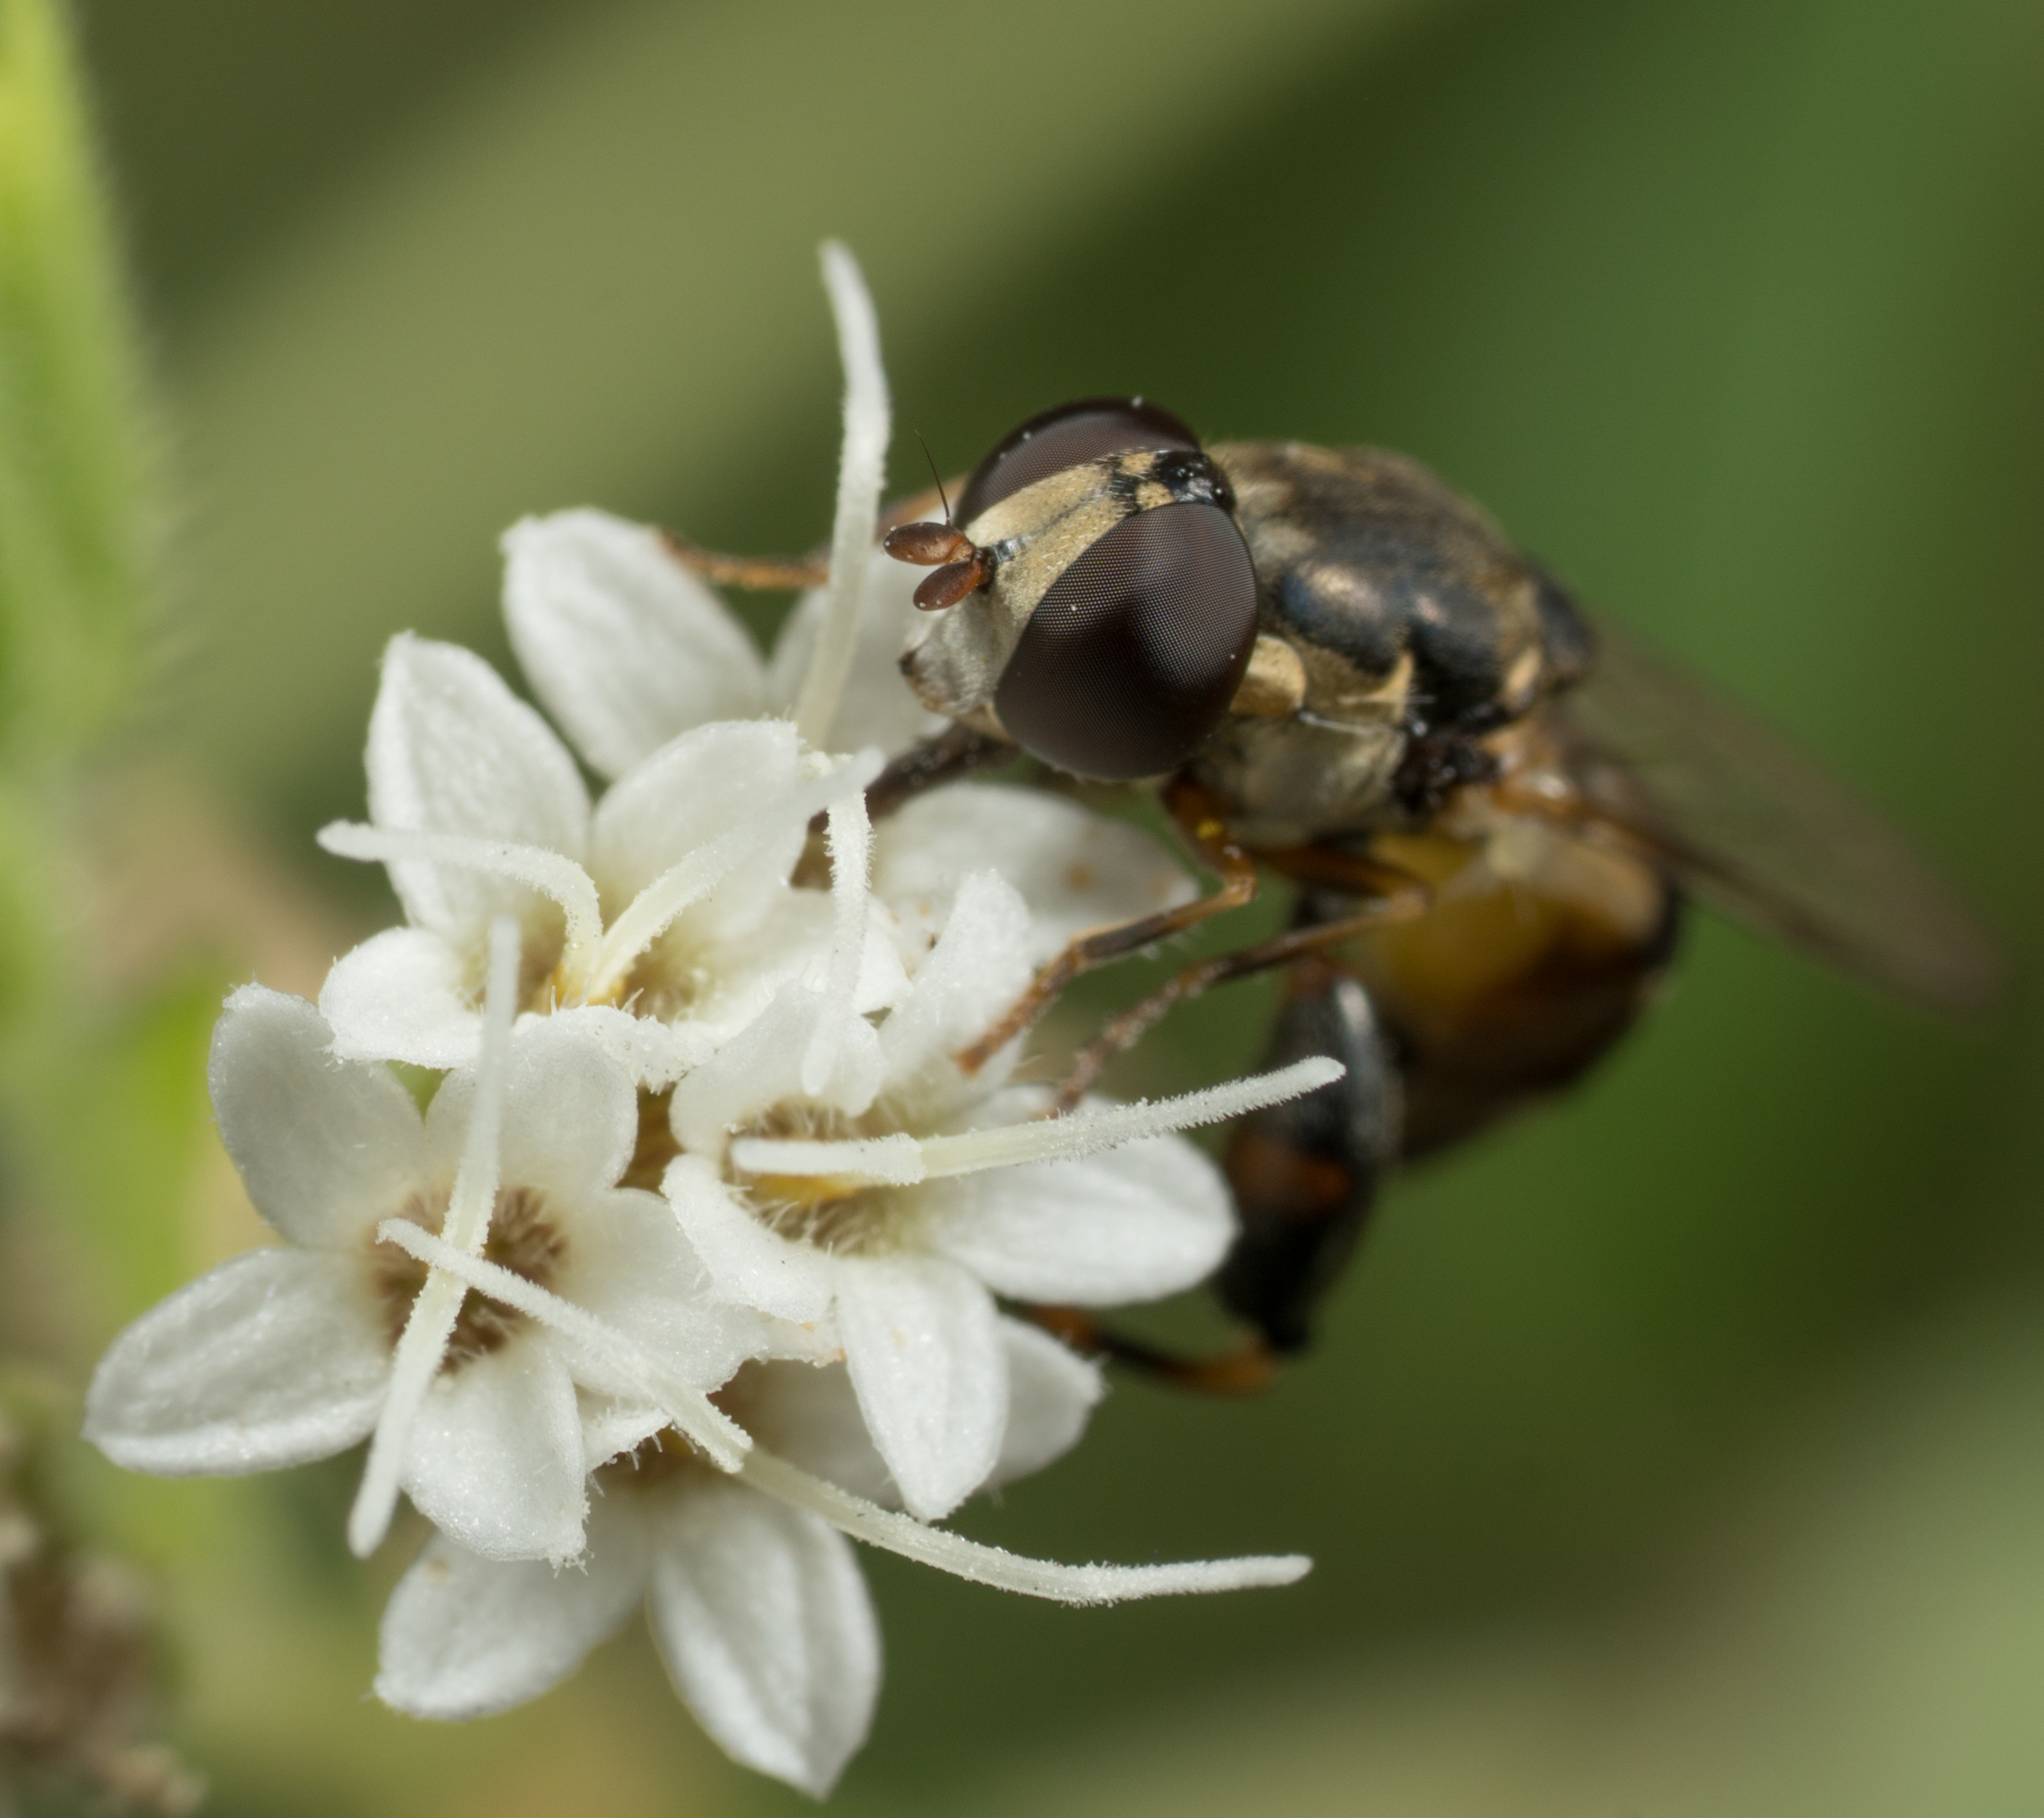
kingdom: Animalia
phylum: Arthropoda
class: Insecta
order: Diptera
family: Syrphidae
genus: Syritta
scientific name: Syritta pipiens
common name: Hover fly
